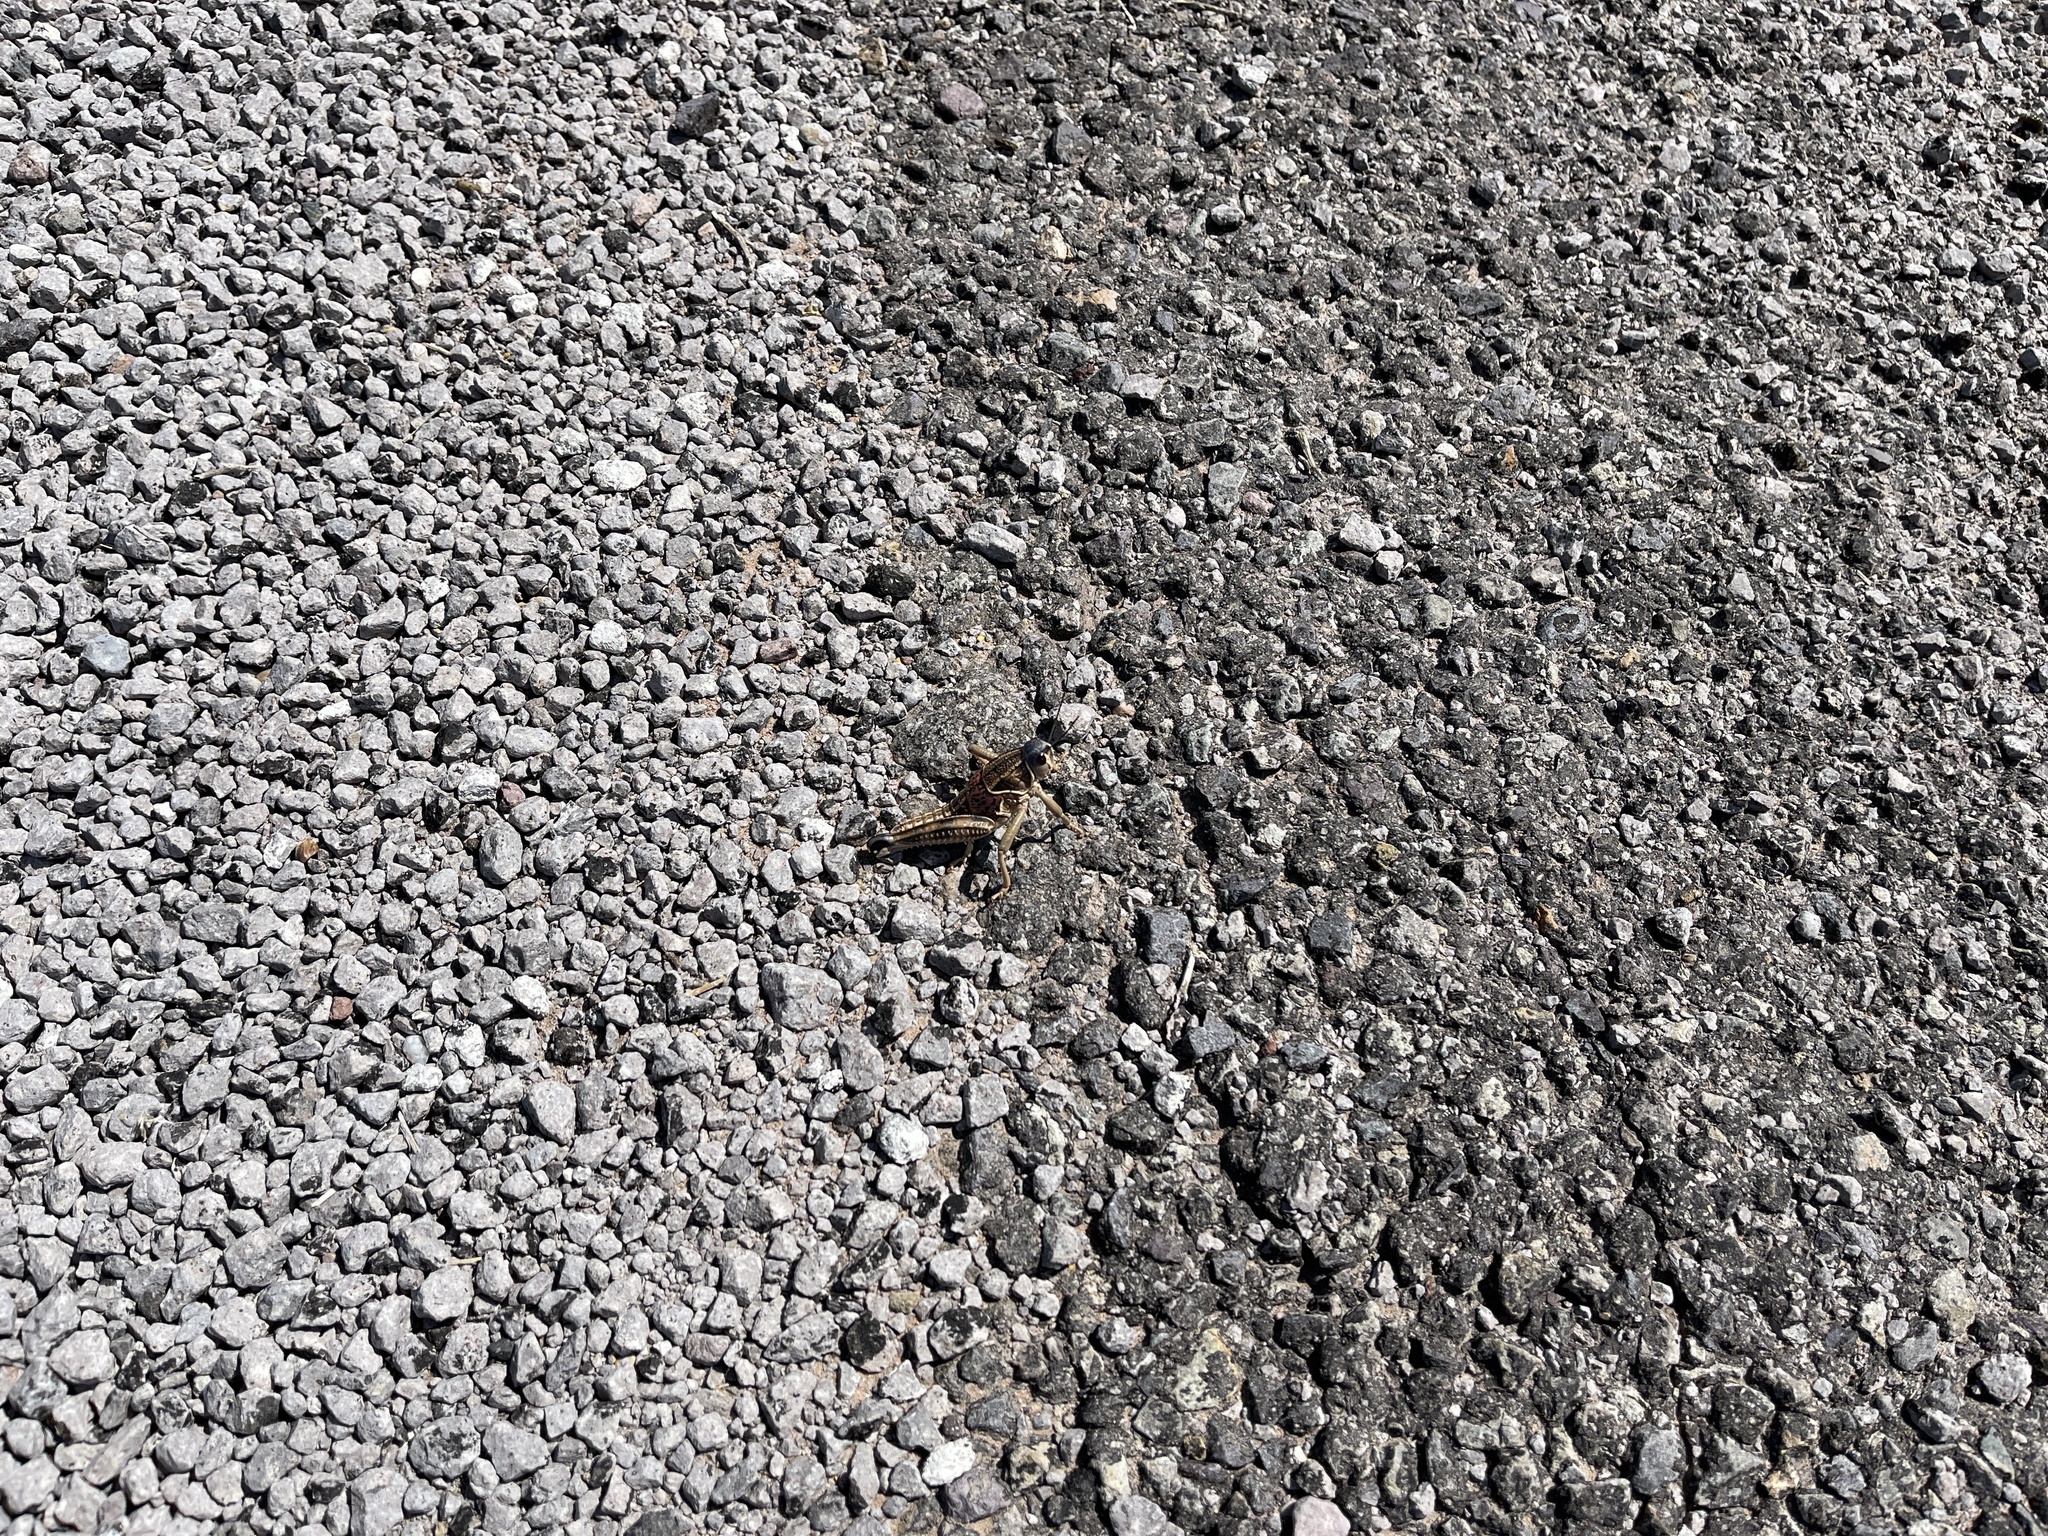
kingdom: Animalia
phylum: Arthropoda
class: Insecta
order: Orthoptera
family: Romaleidae
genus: Brachystola
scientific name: Brachystola magna
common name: Plains lubber grasshopper
